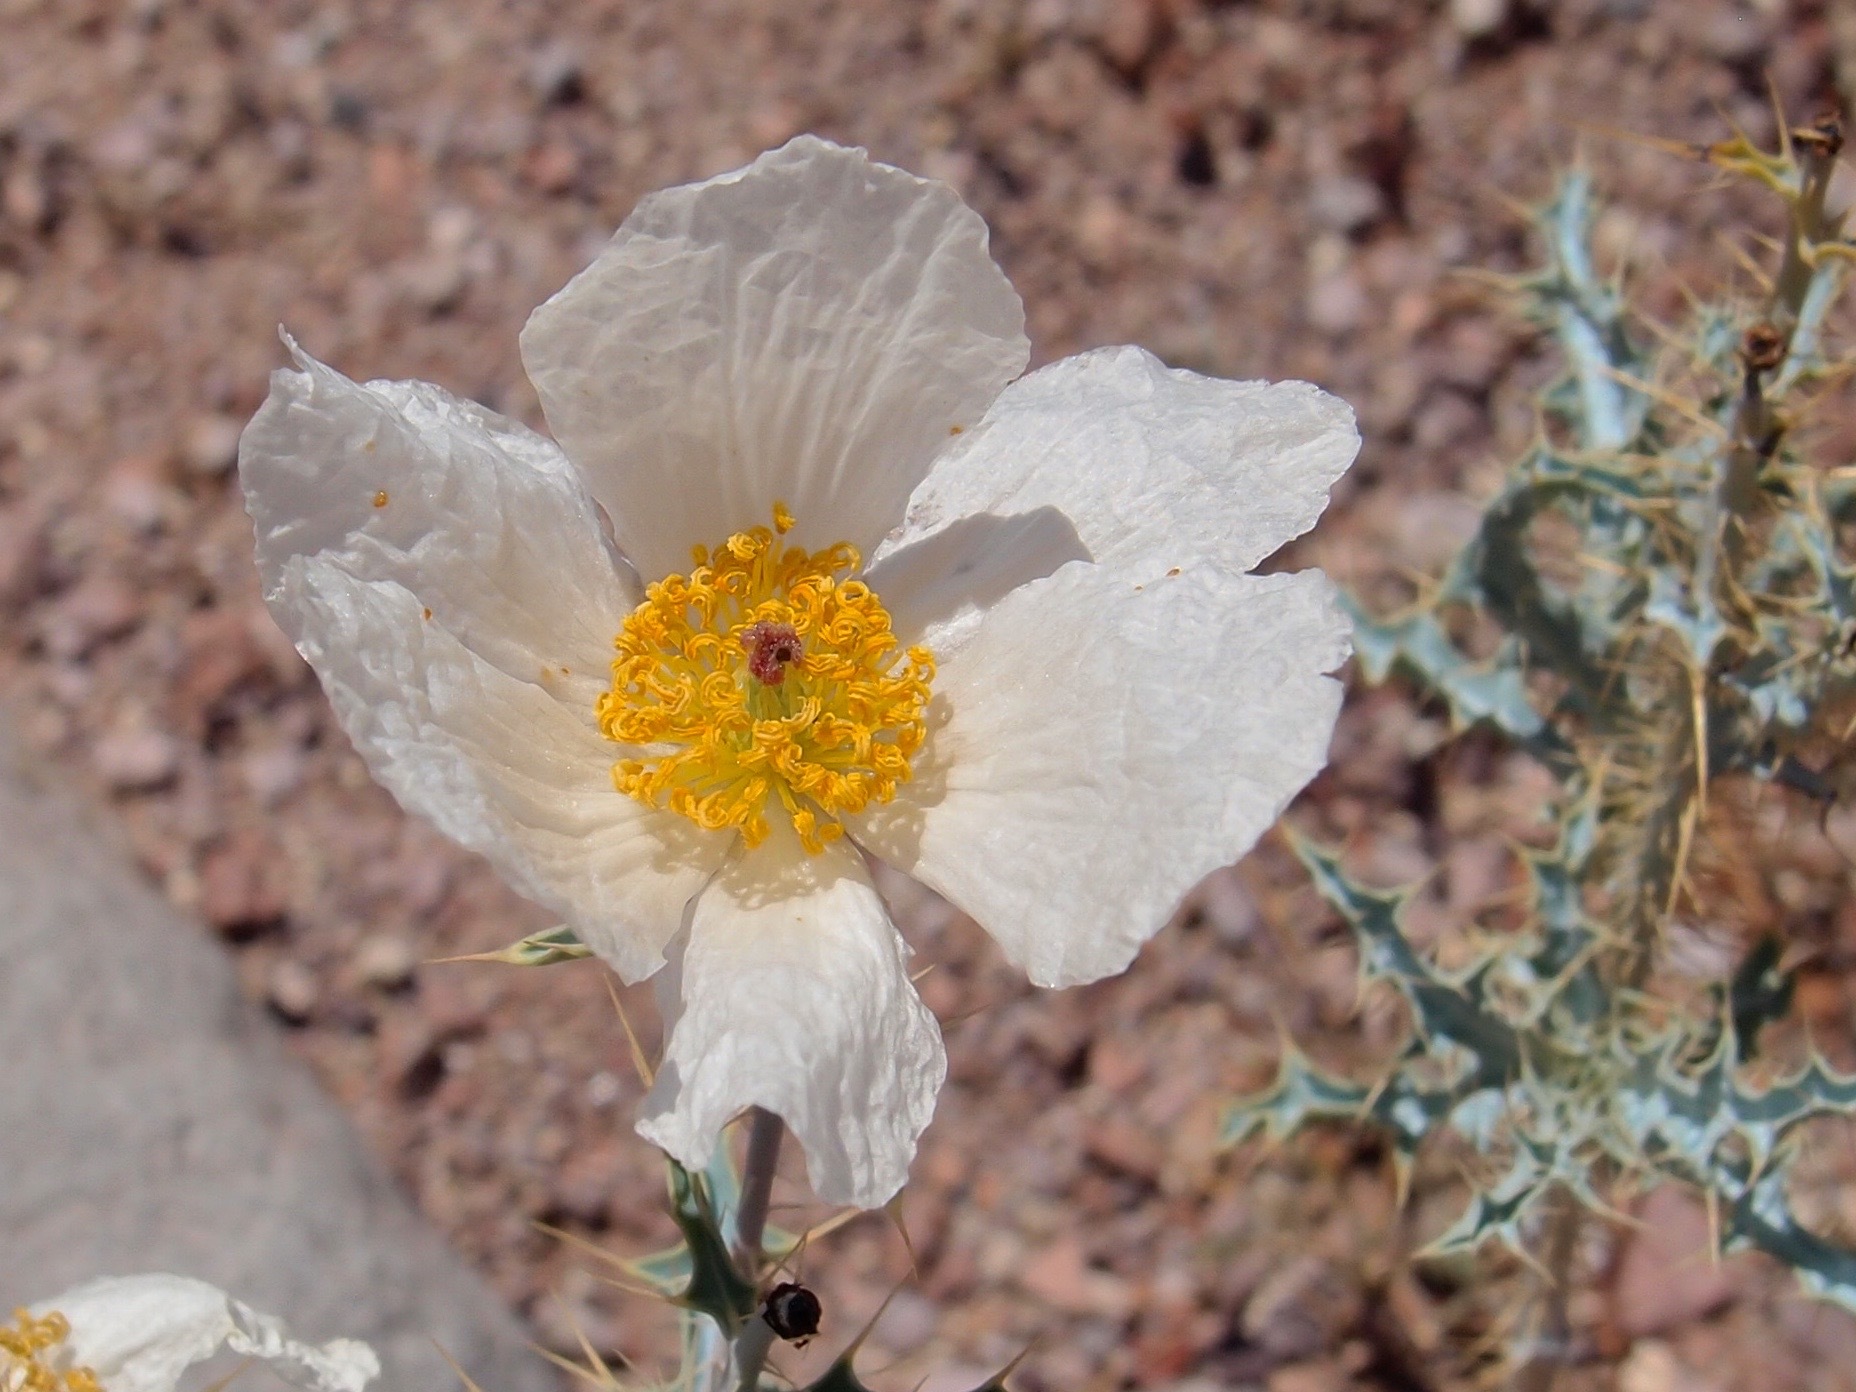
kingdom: Plantae
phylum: Tracheophyta
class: Magnoliopsida
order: Ranunculales
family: Papaveraceae
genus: Argemone
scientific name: Argemone gracilenta
